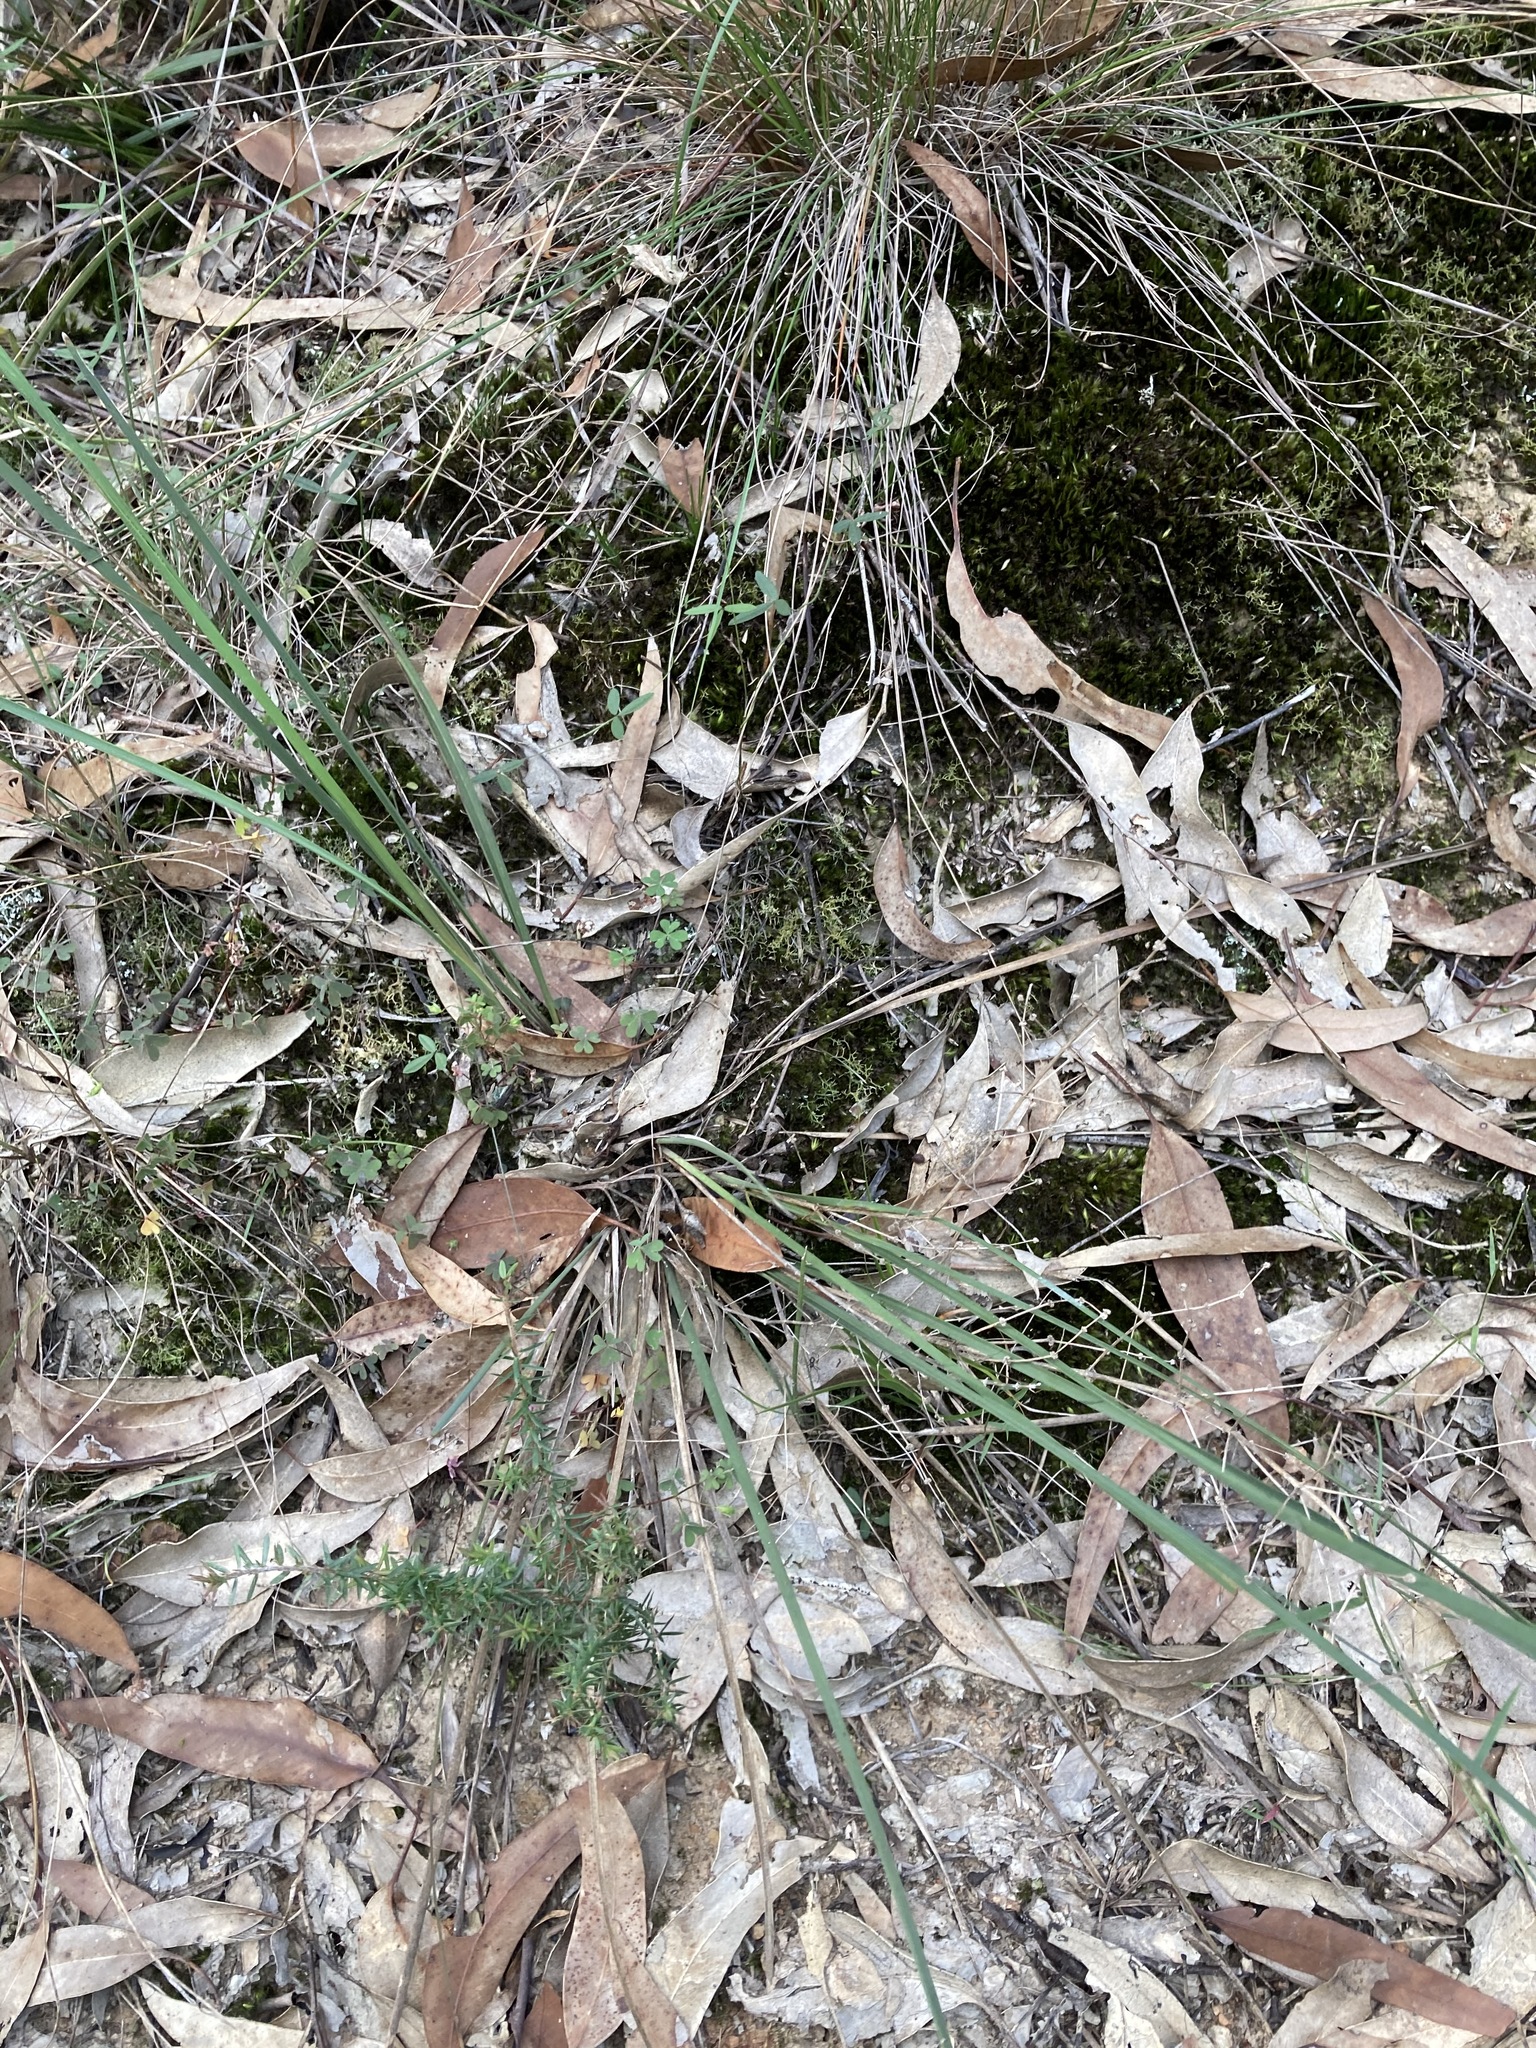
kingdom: Plantae
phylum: Tracheophyta
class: Liliopsida
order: Asparagales
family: Asparagaceae
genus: Lomandra
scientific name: Lomandra multiflora
